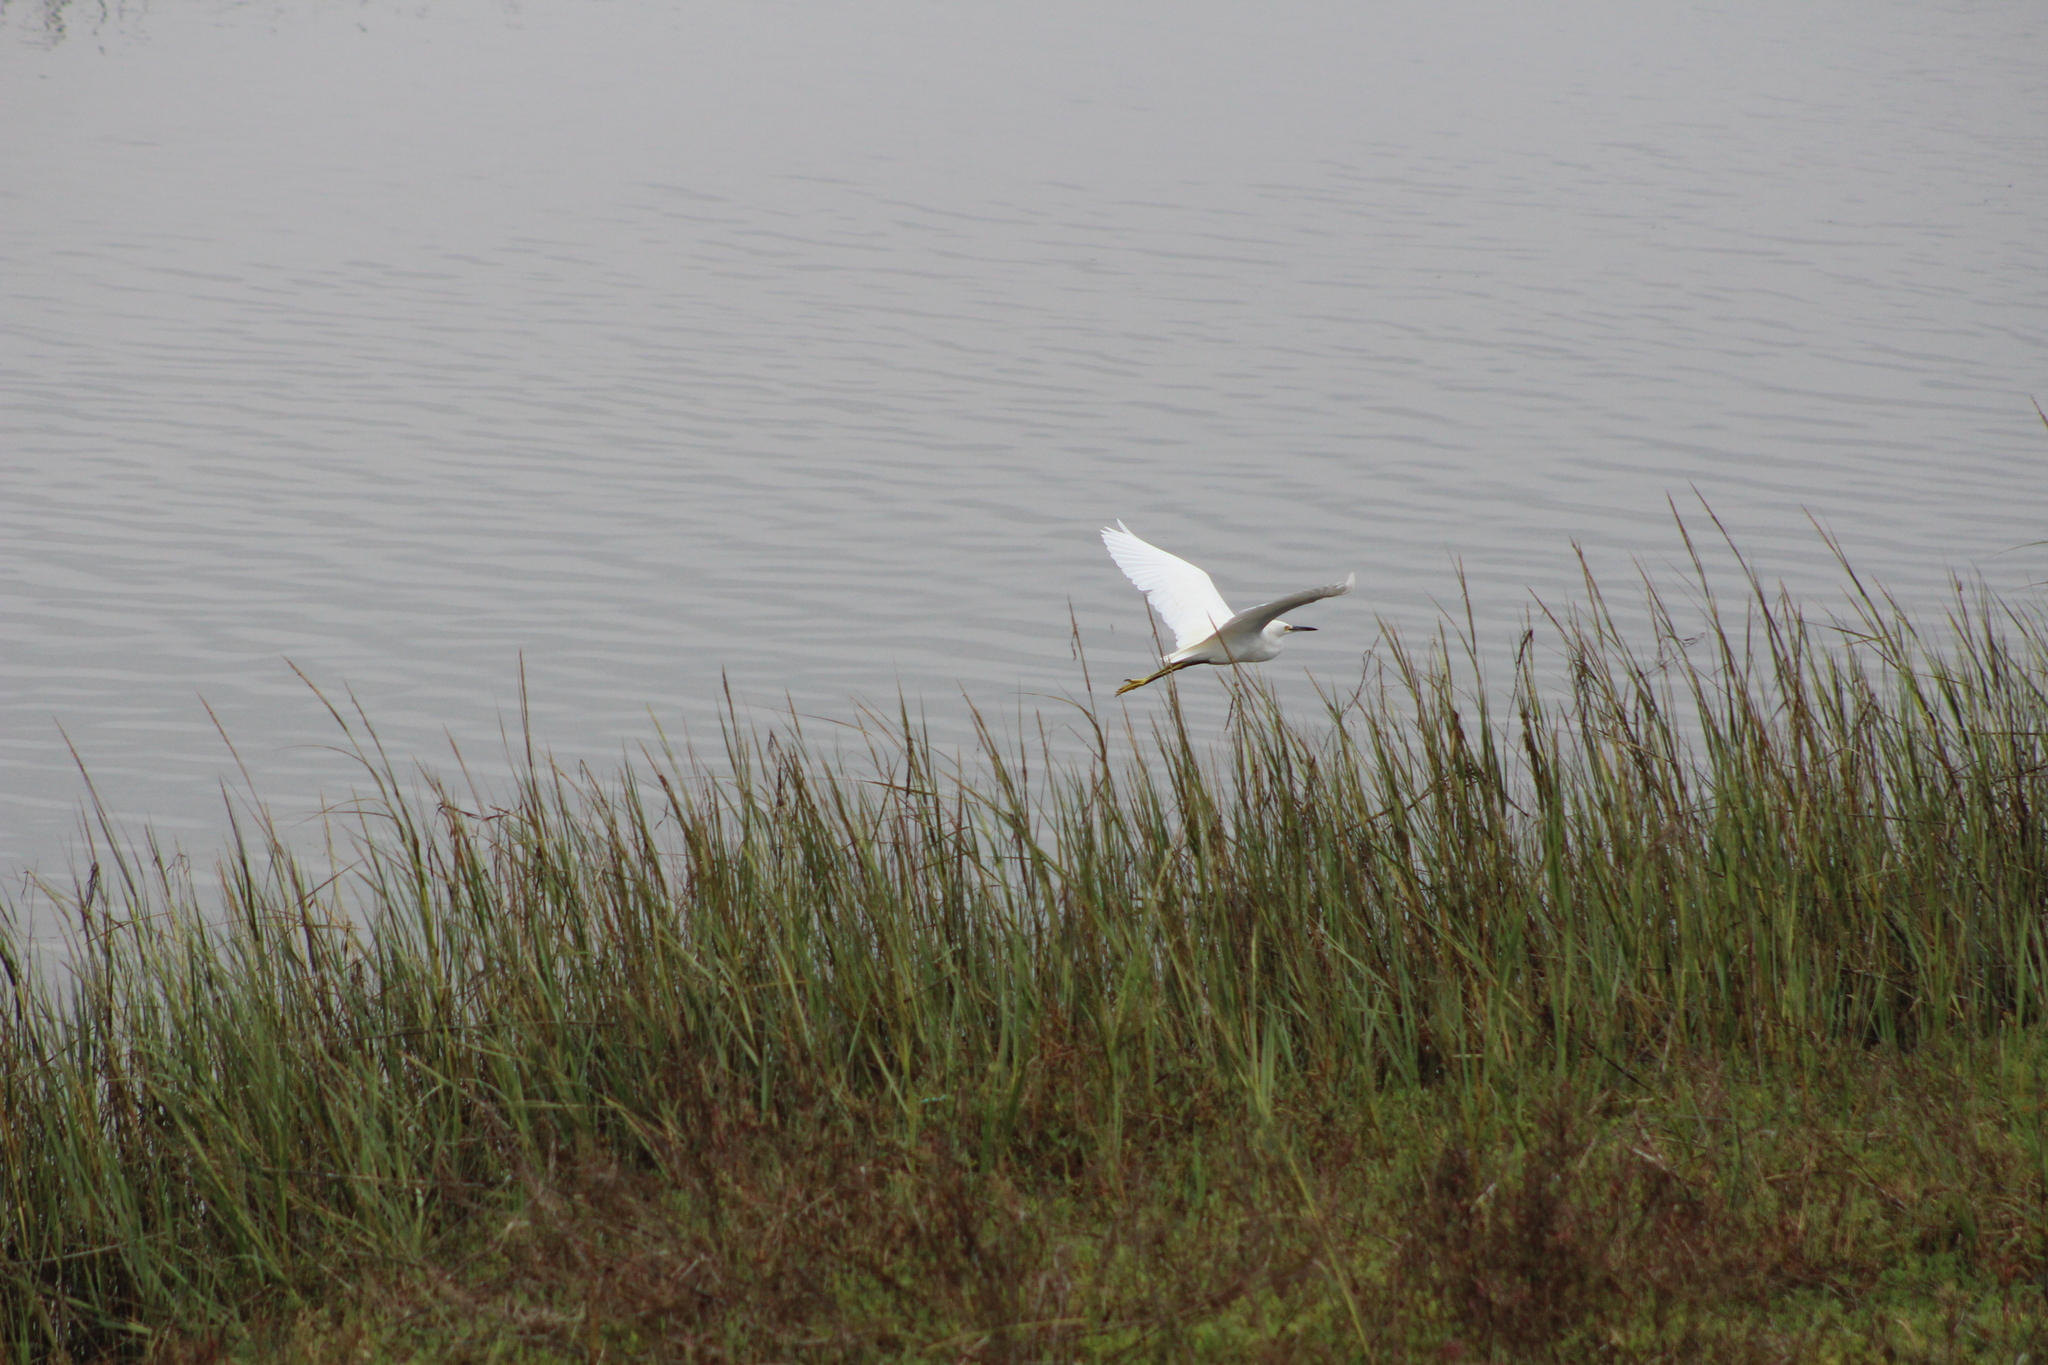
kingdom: Animalia
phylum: Chordata
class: Aves
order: Pelecaniformes
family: Ardeidae
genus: Egretta
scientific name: Egretta thula
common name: Snowy egret
